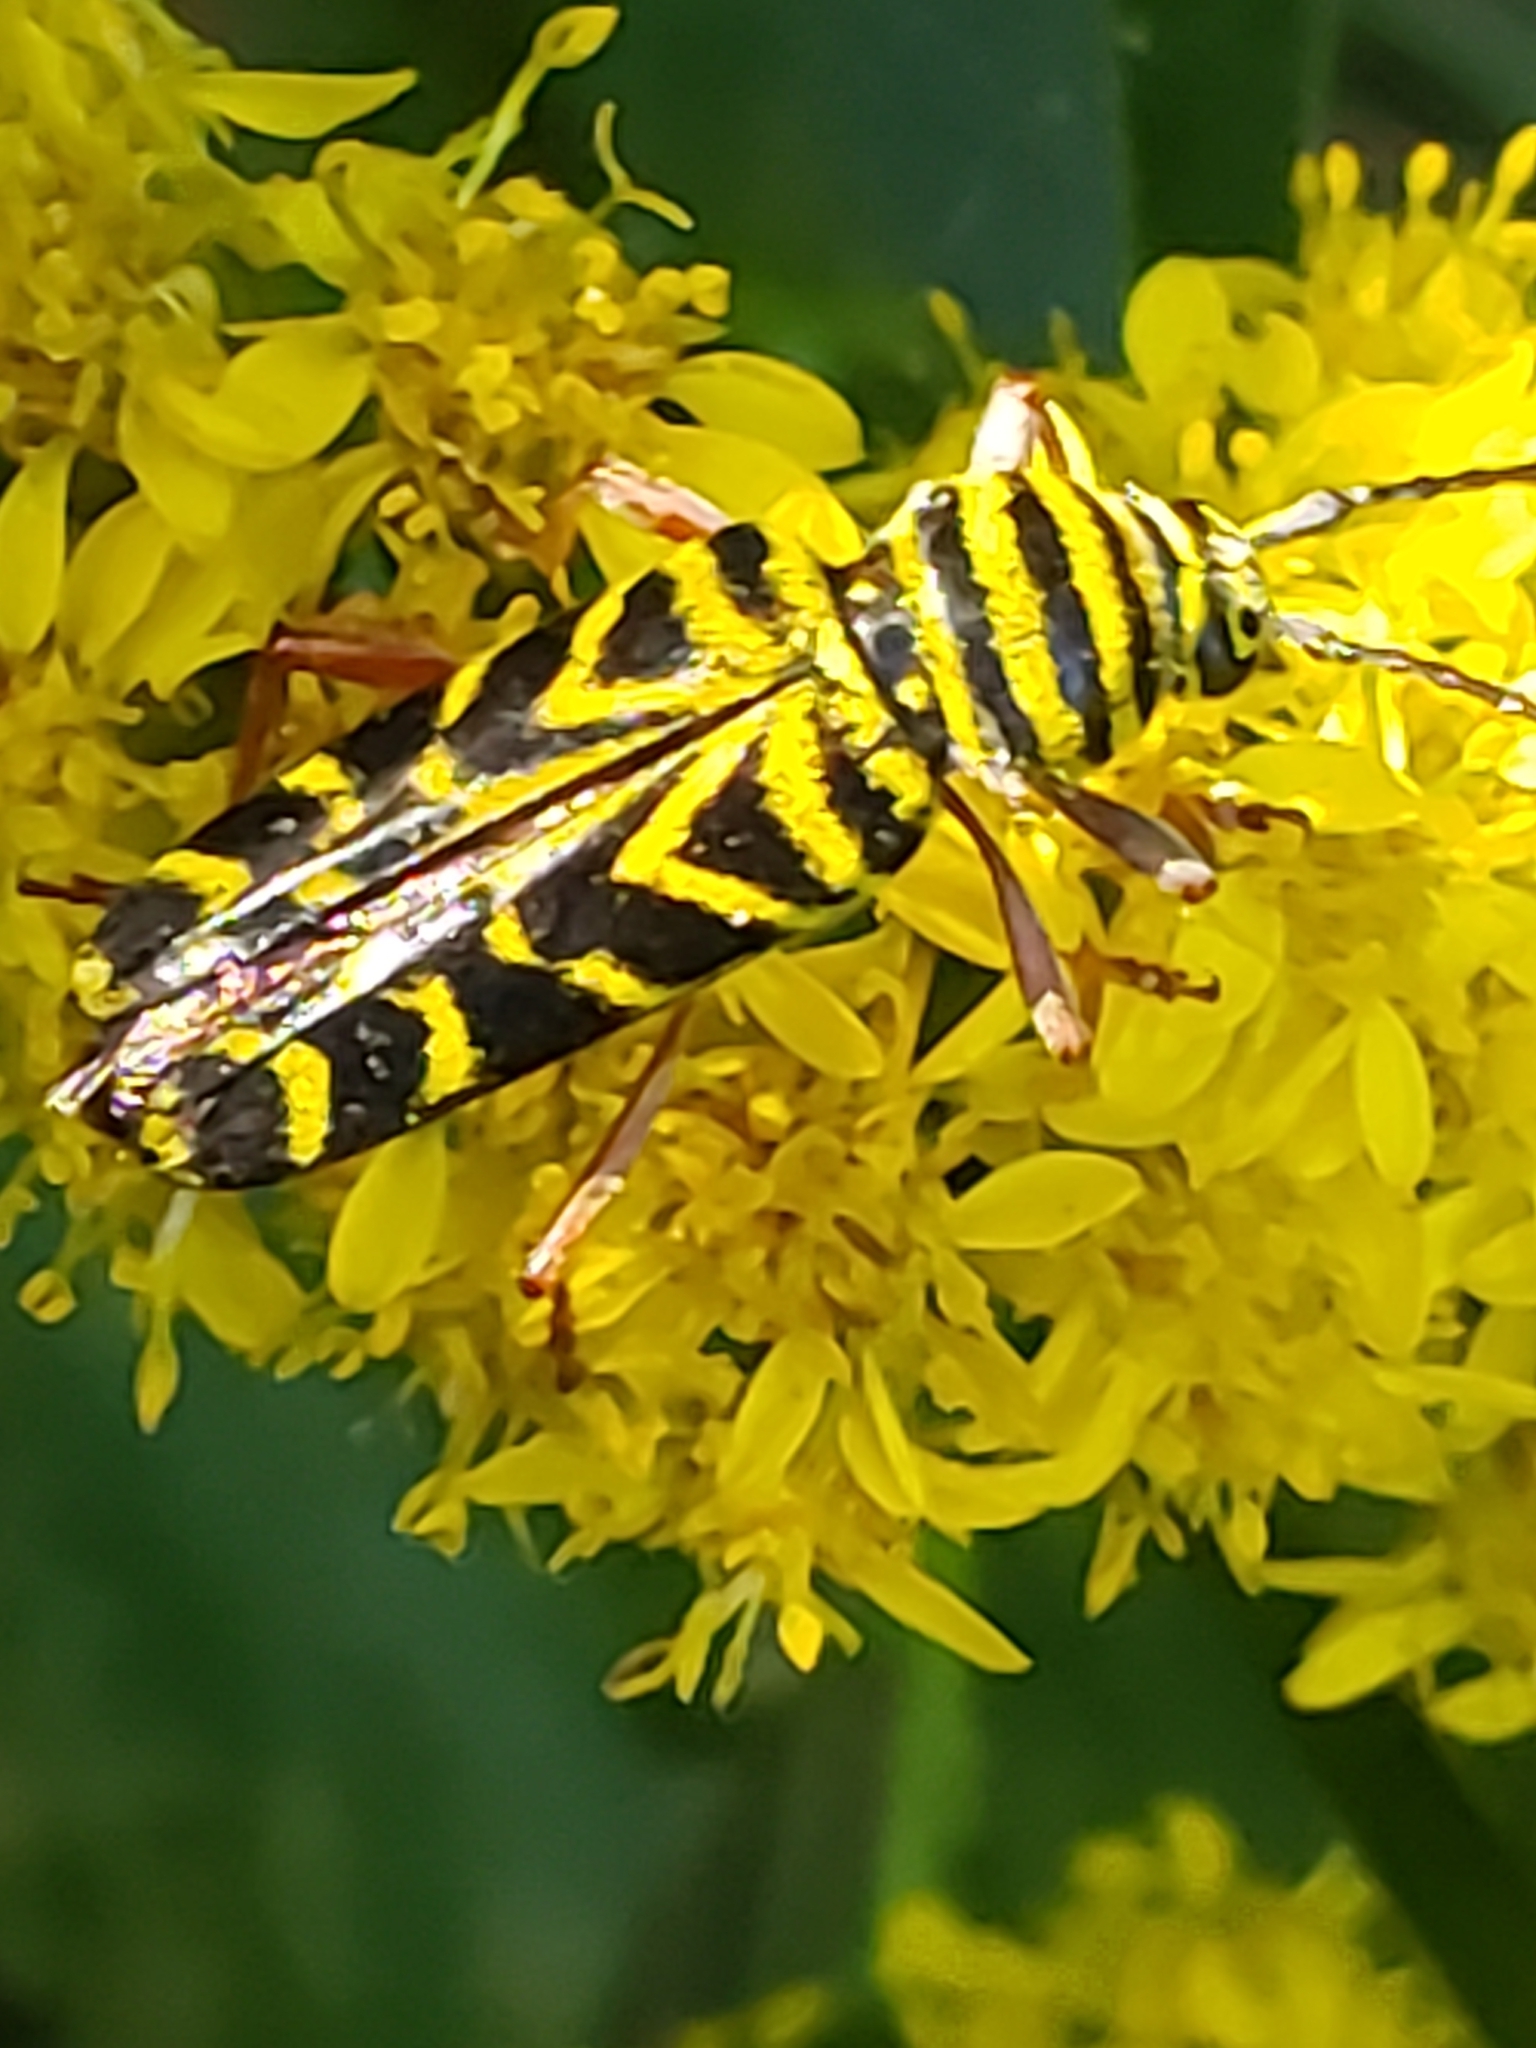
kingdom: Animalia
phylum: Arthropoda
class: Insecta
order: Coleoptera
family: Cerambycidae
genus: Megacyllene
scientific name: Megacyllene robiniae
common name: Locust borer
